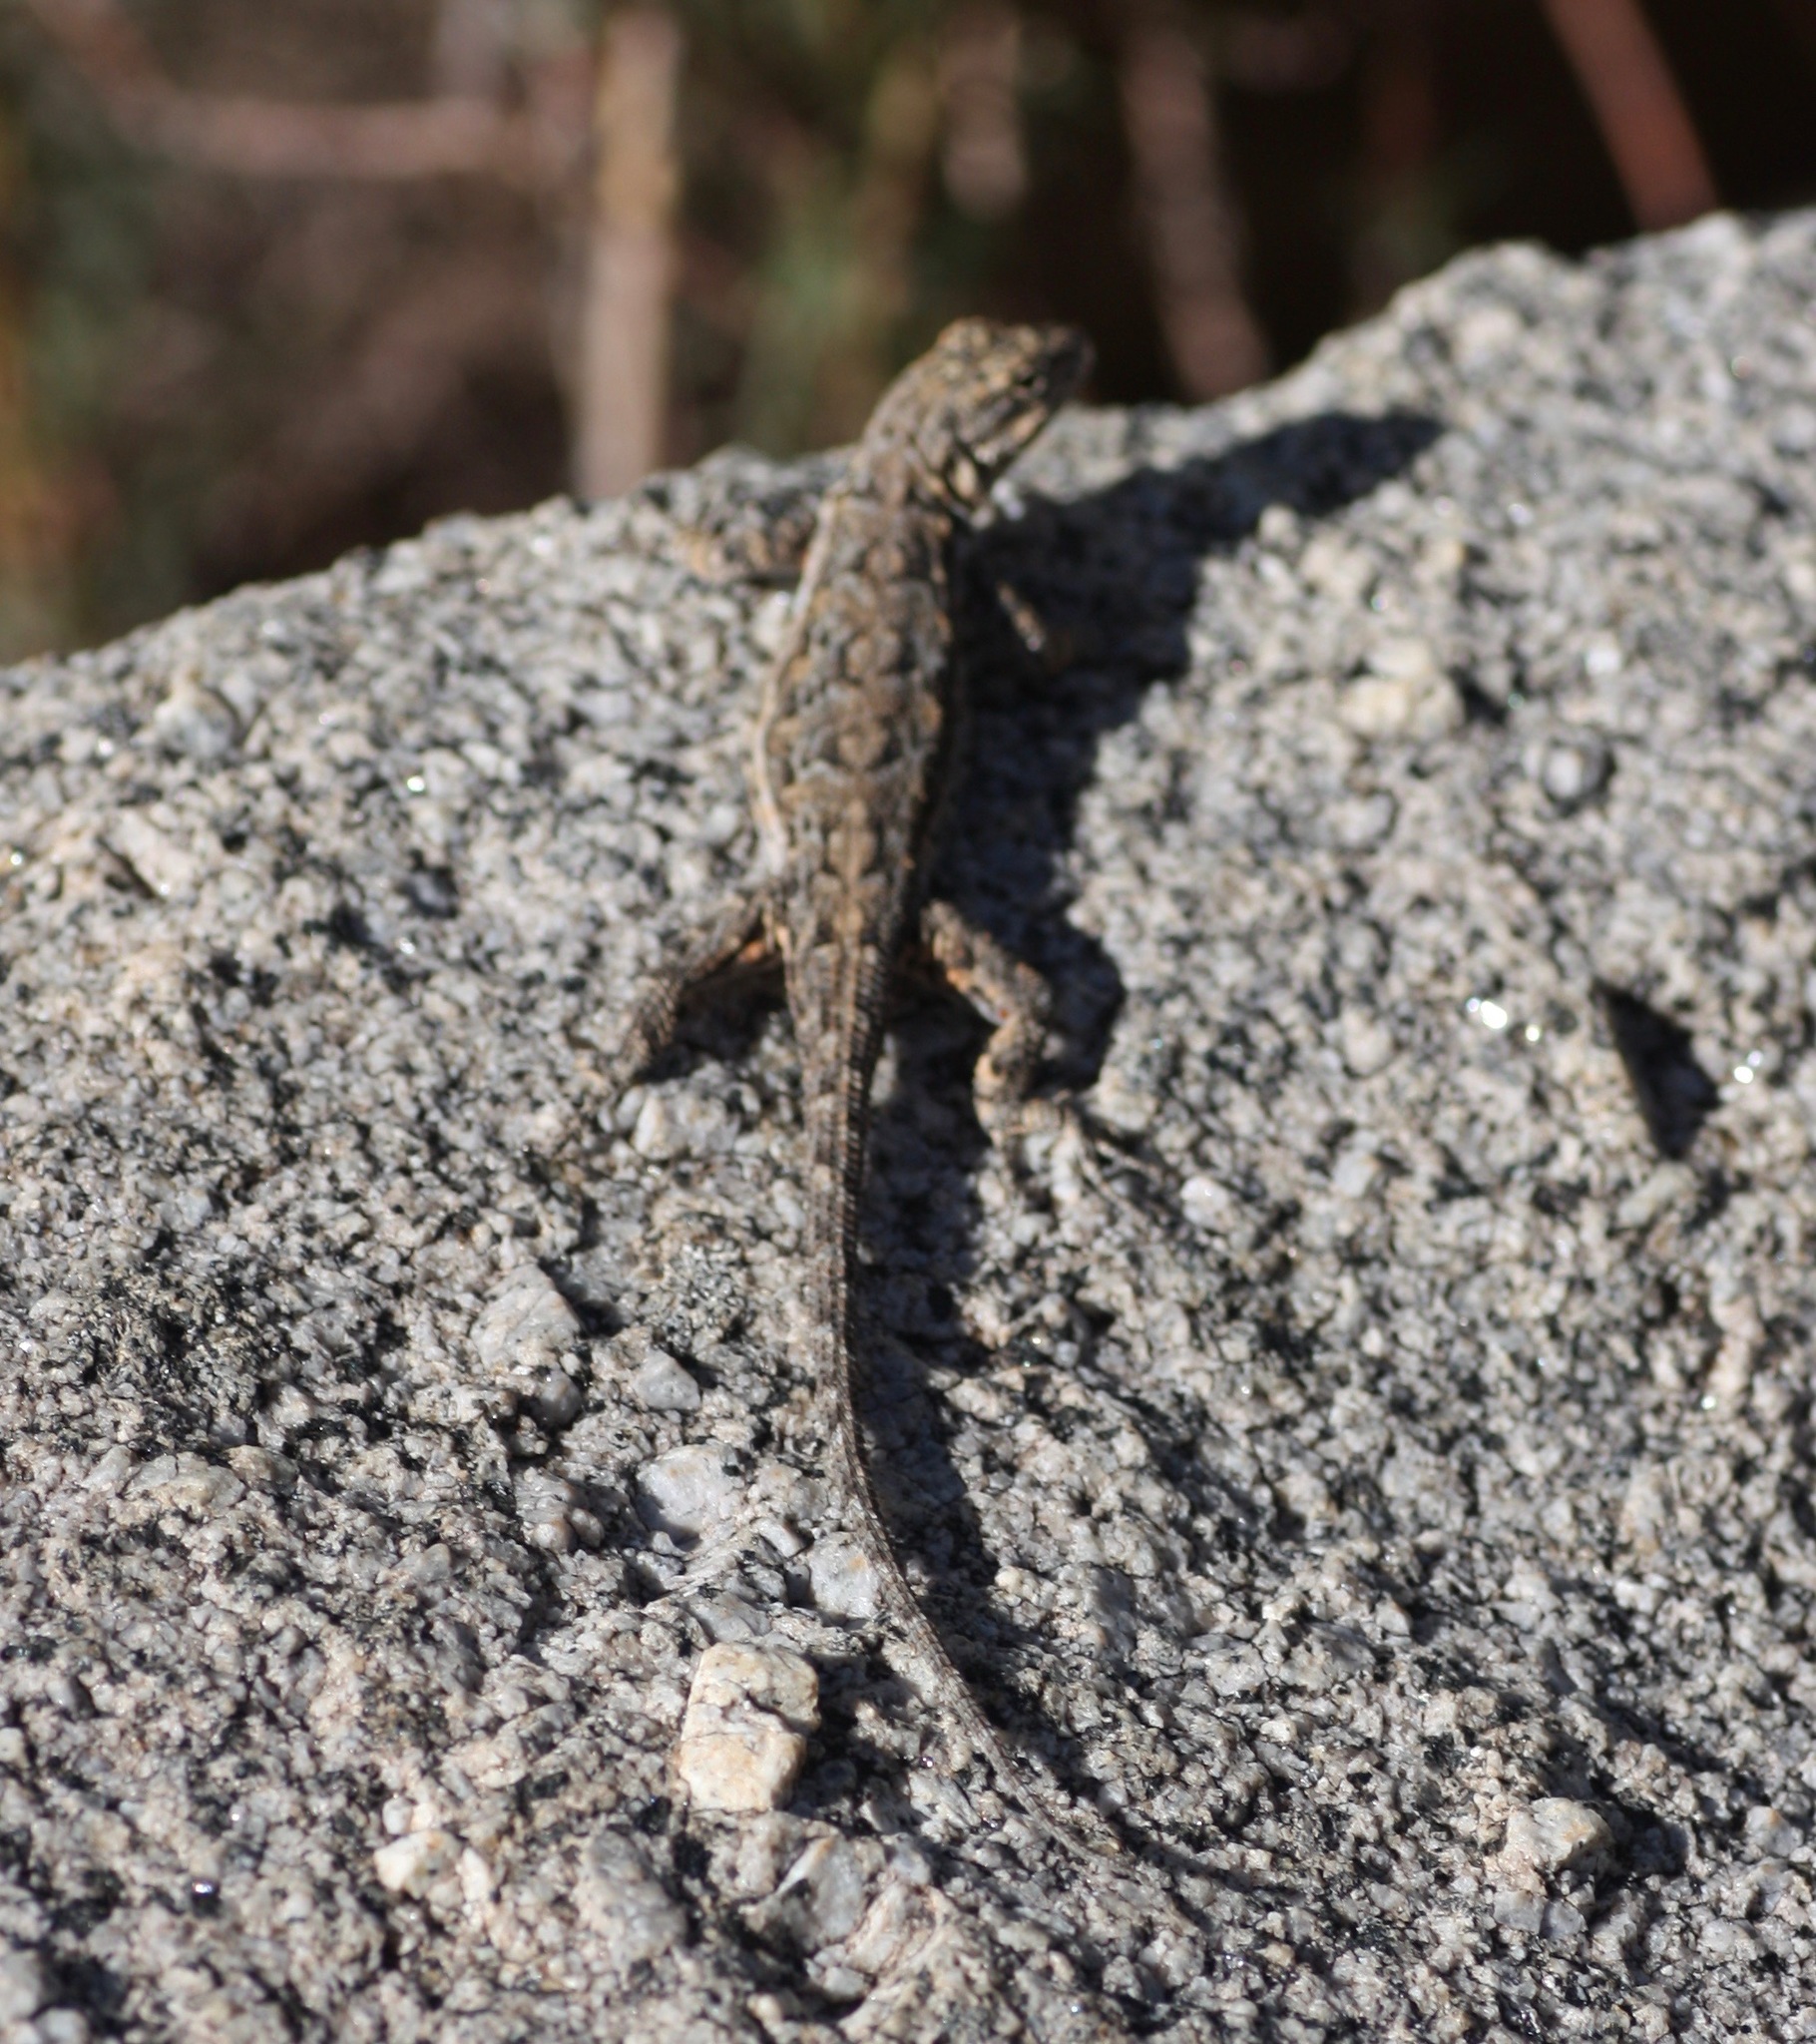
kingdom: Animalia
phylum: Chordata
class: Squamata
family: Phrynosomatidae
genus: Urosaurus
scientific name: Urosaurus ornatus
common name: Ornate tree lizard
